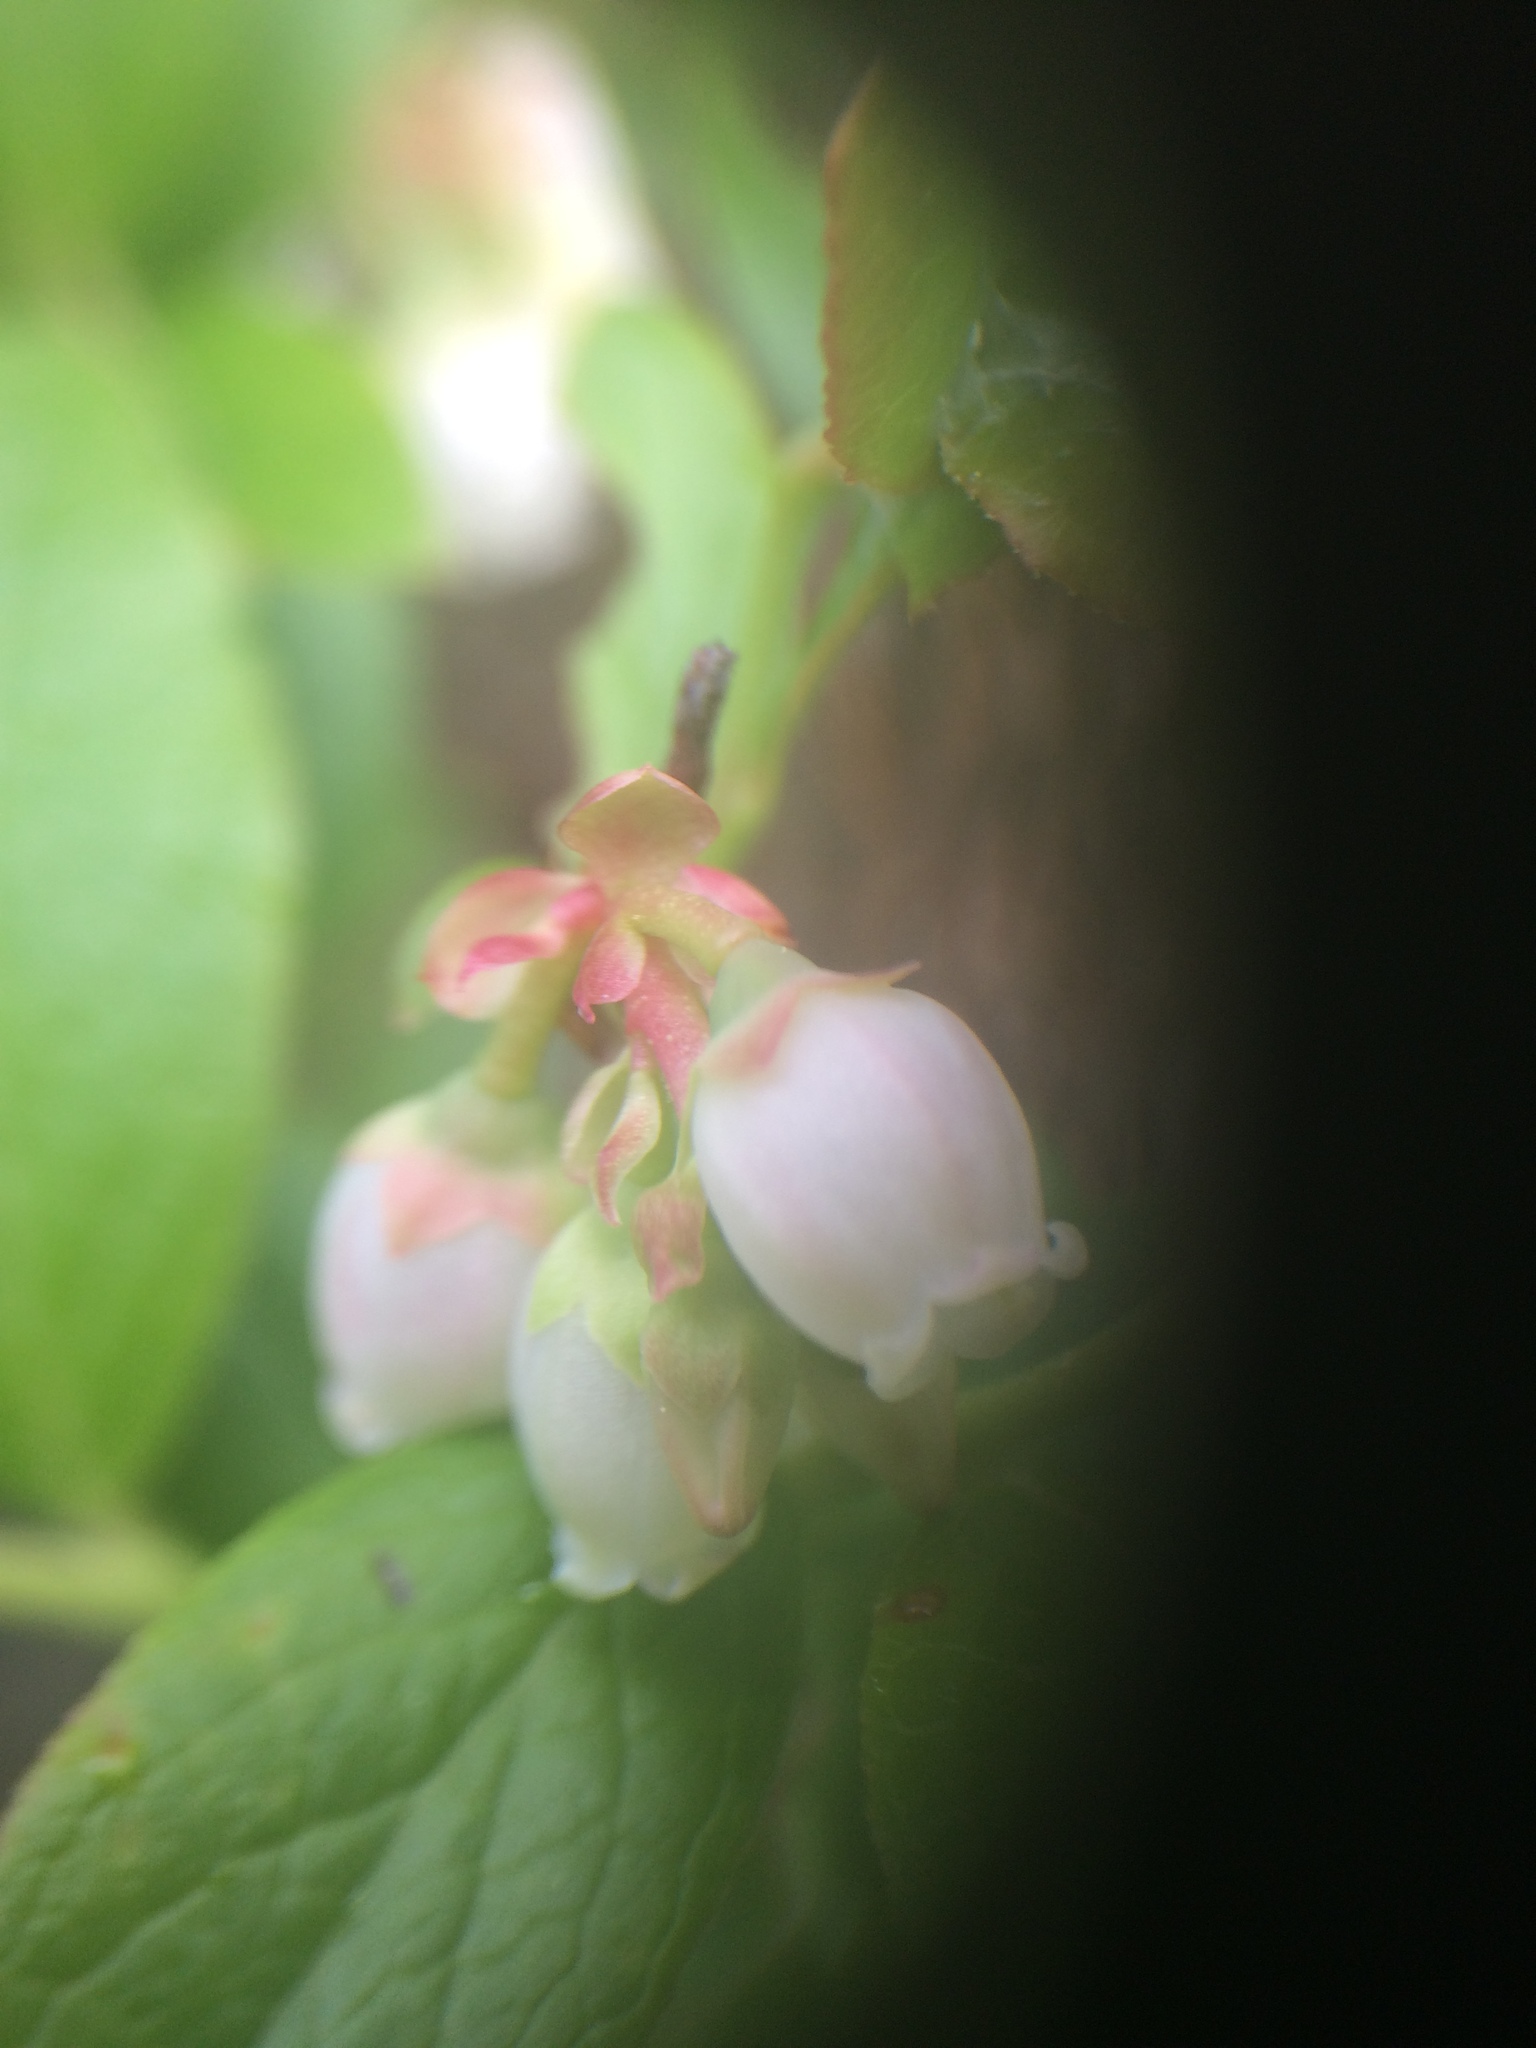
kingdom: Plantae
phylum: Tracheophyta
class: Magnoliopsida
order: Ericales
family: Ericaceae
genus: Vaccinium
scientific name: Vaccinium angustifolium
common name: Early lowbush blueberry
